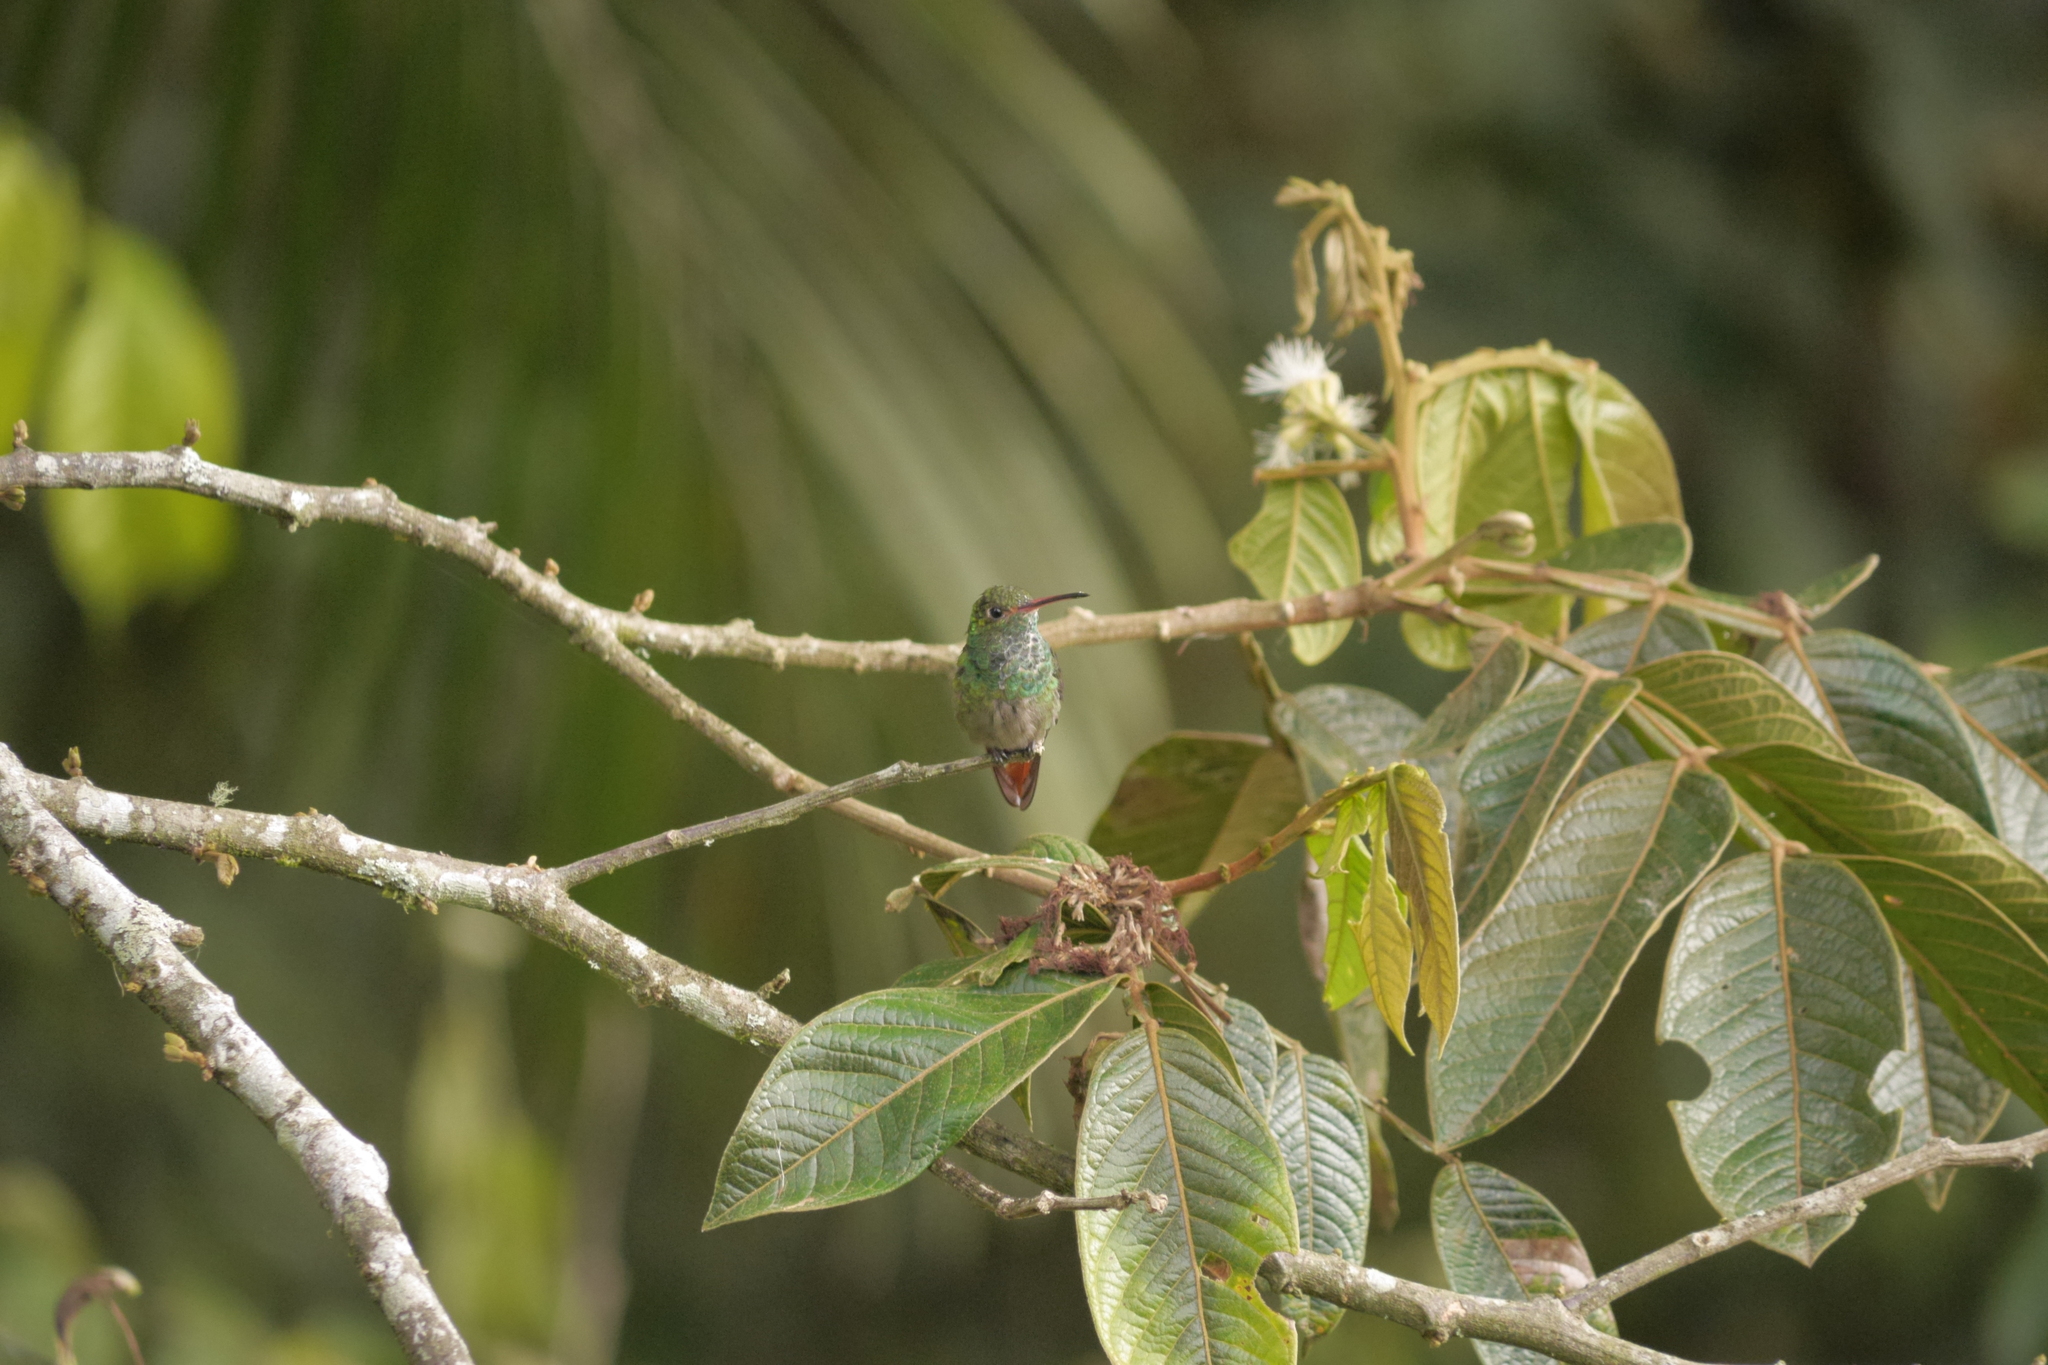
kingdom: Animalia
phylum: Chordata
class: Aves
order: Apodiformes
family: Trochilidae
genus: Amazilia
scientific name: Amazilia tzacatl
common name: Rufous-tailed hummingbird
